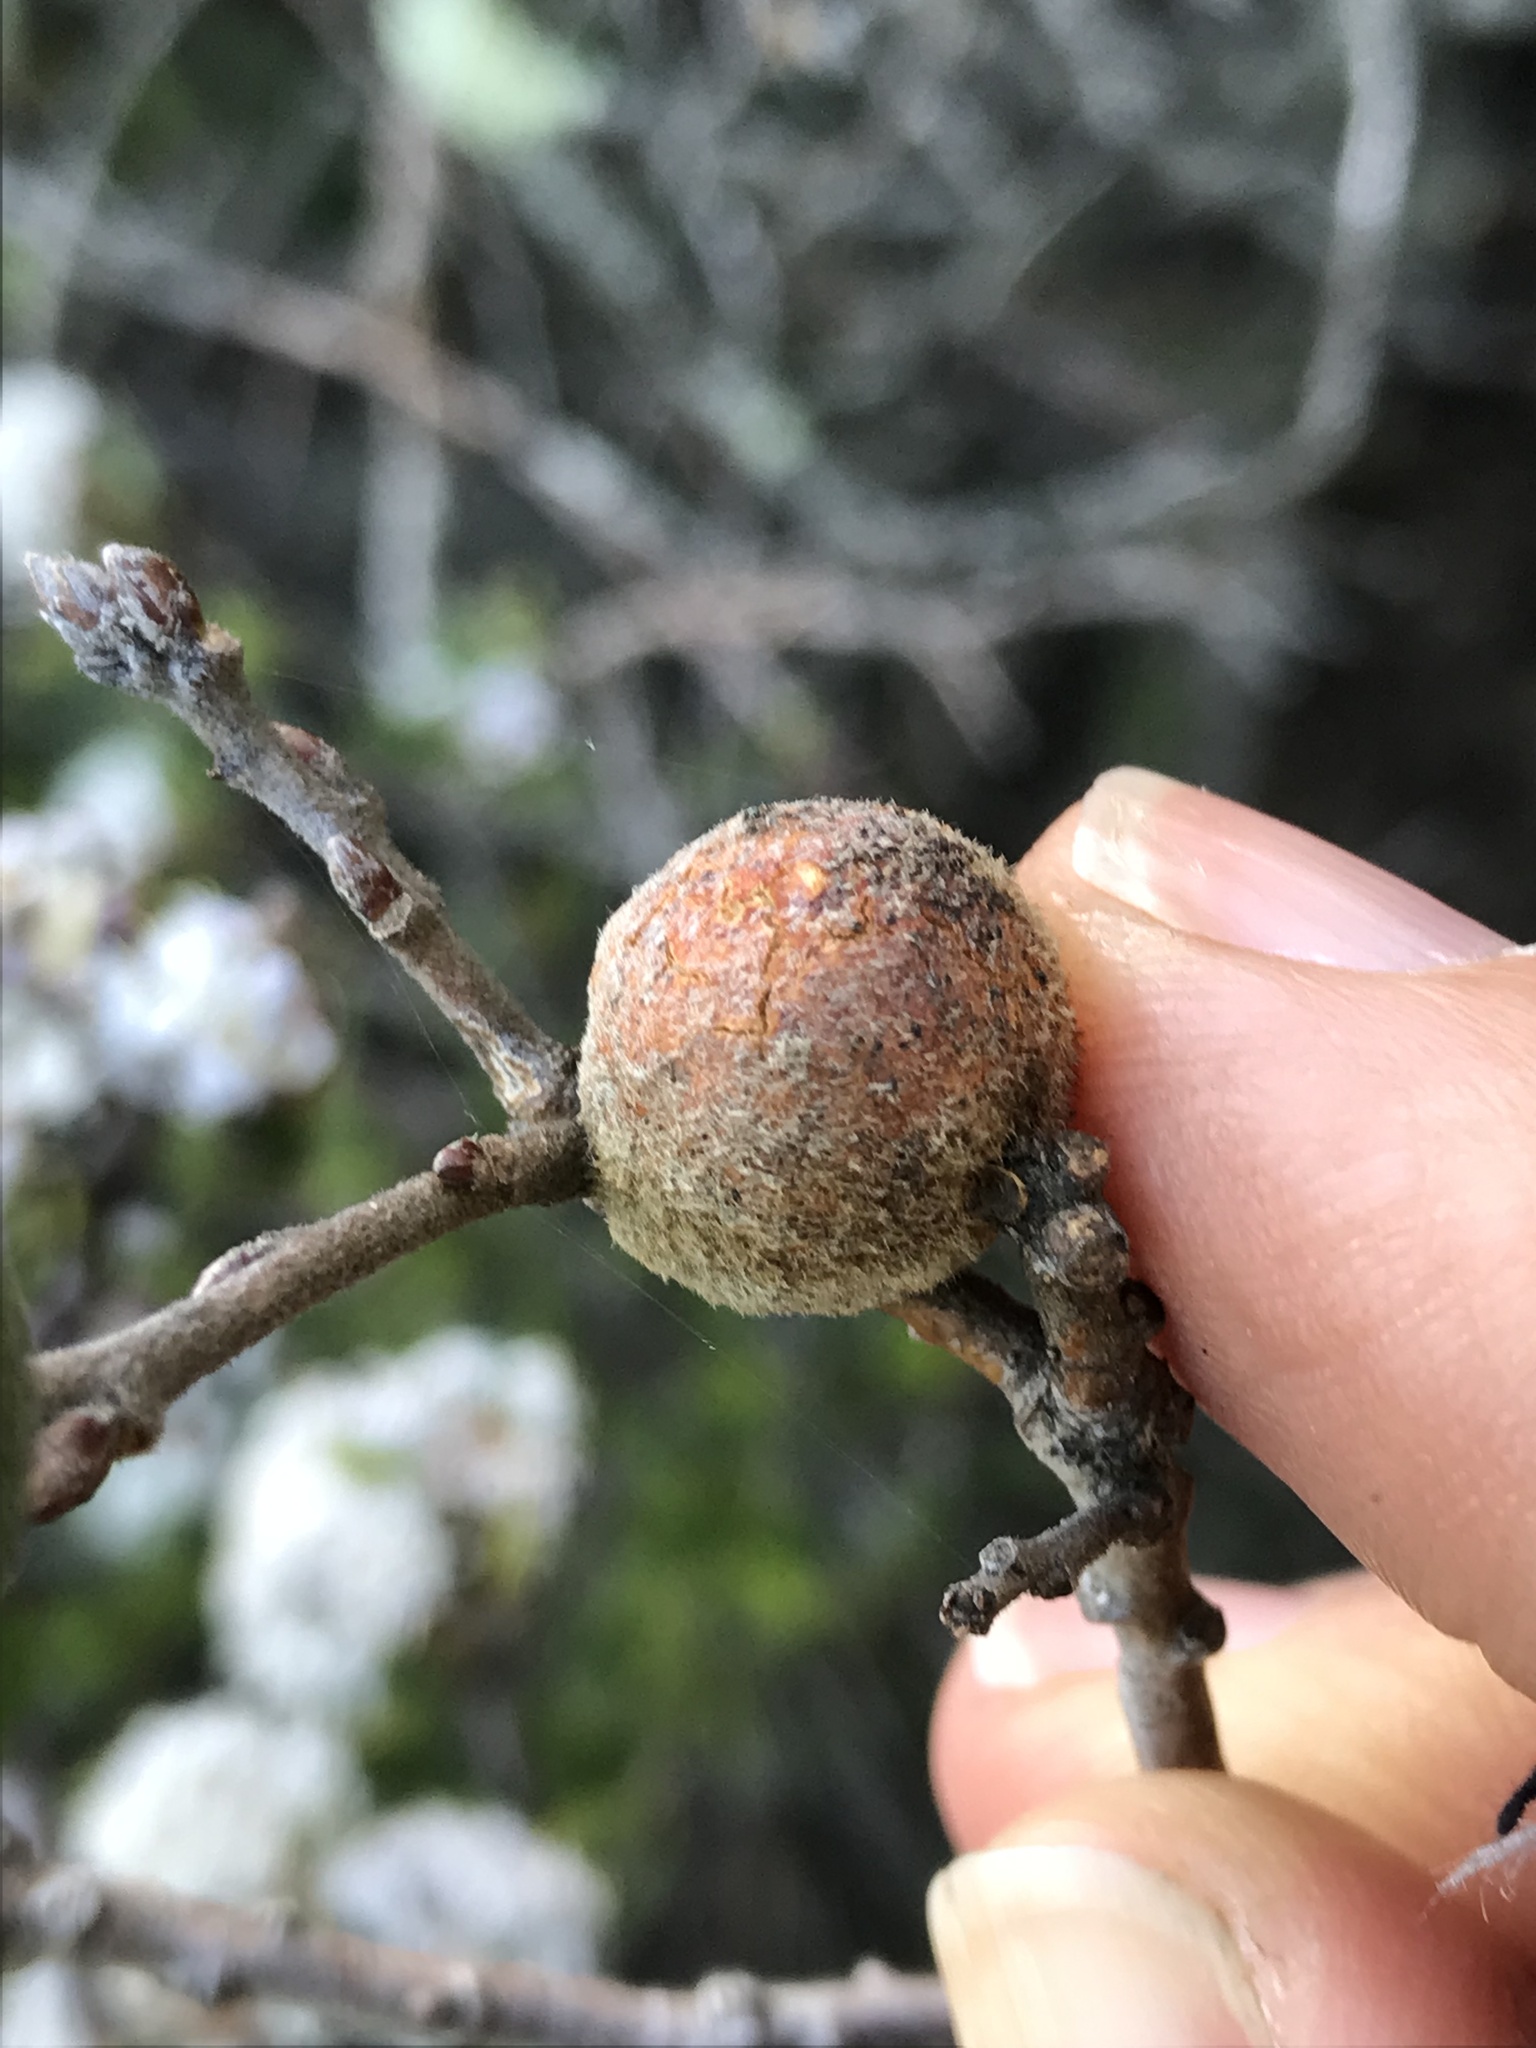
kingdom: Animalia
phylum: Arthropoda
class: Insecta
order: Hymenoptera
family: Cynipidae
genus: Burnettweldia
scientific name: Burnettweldia
